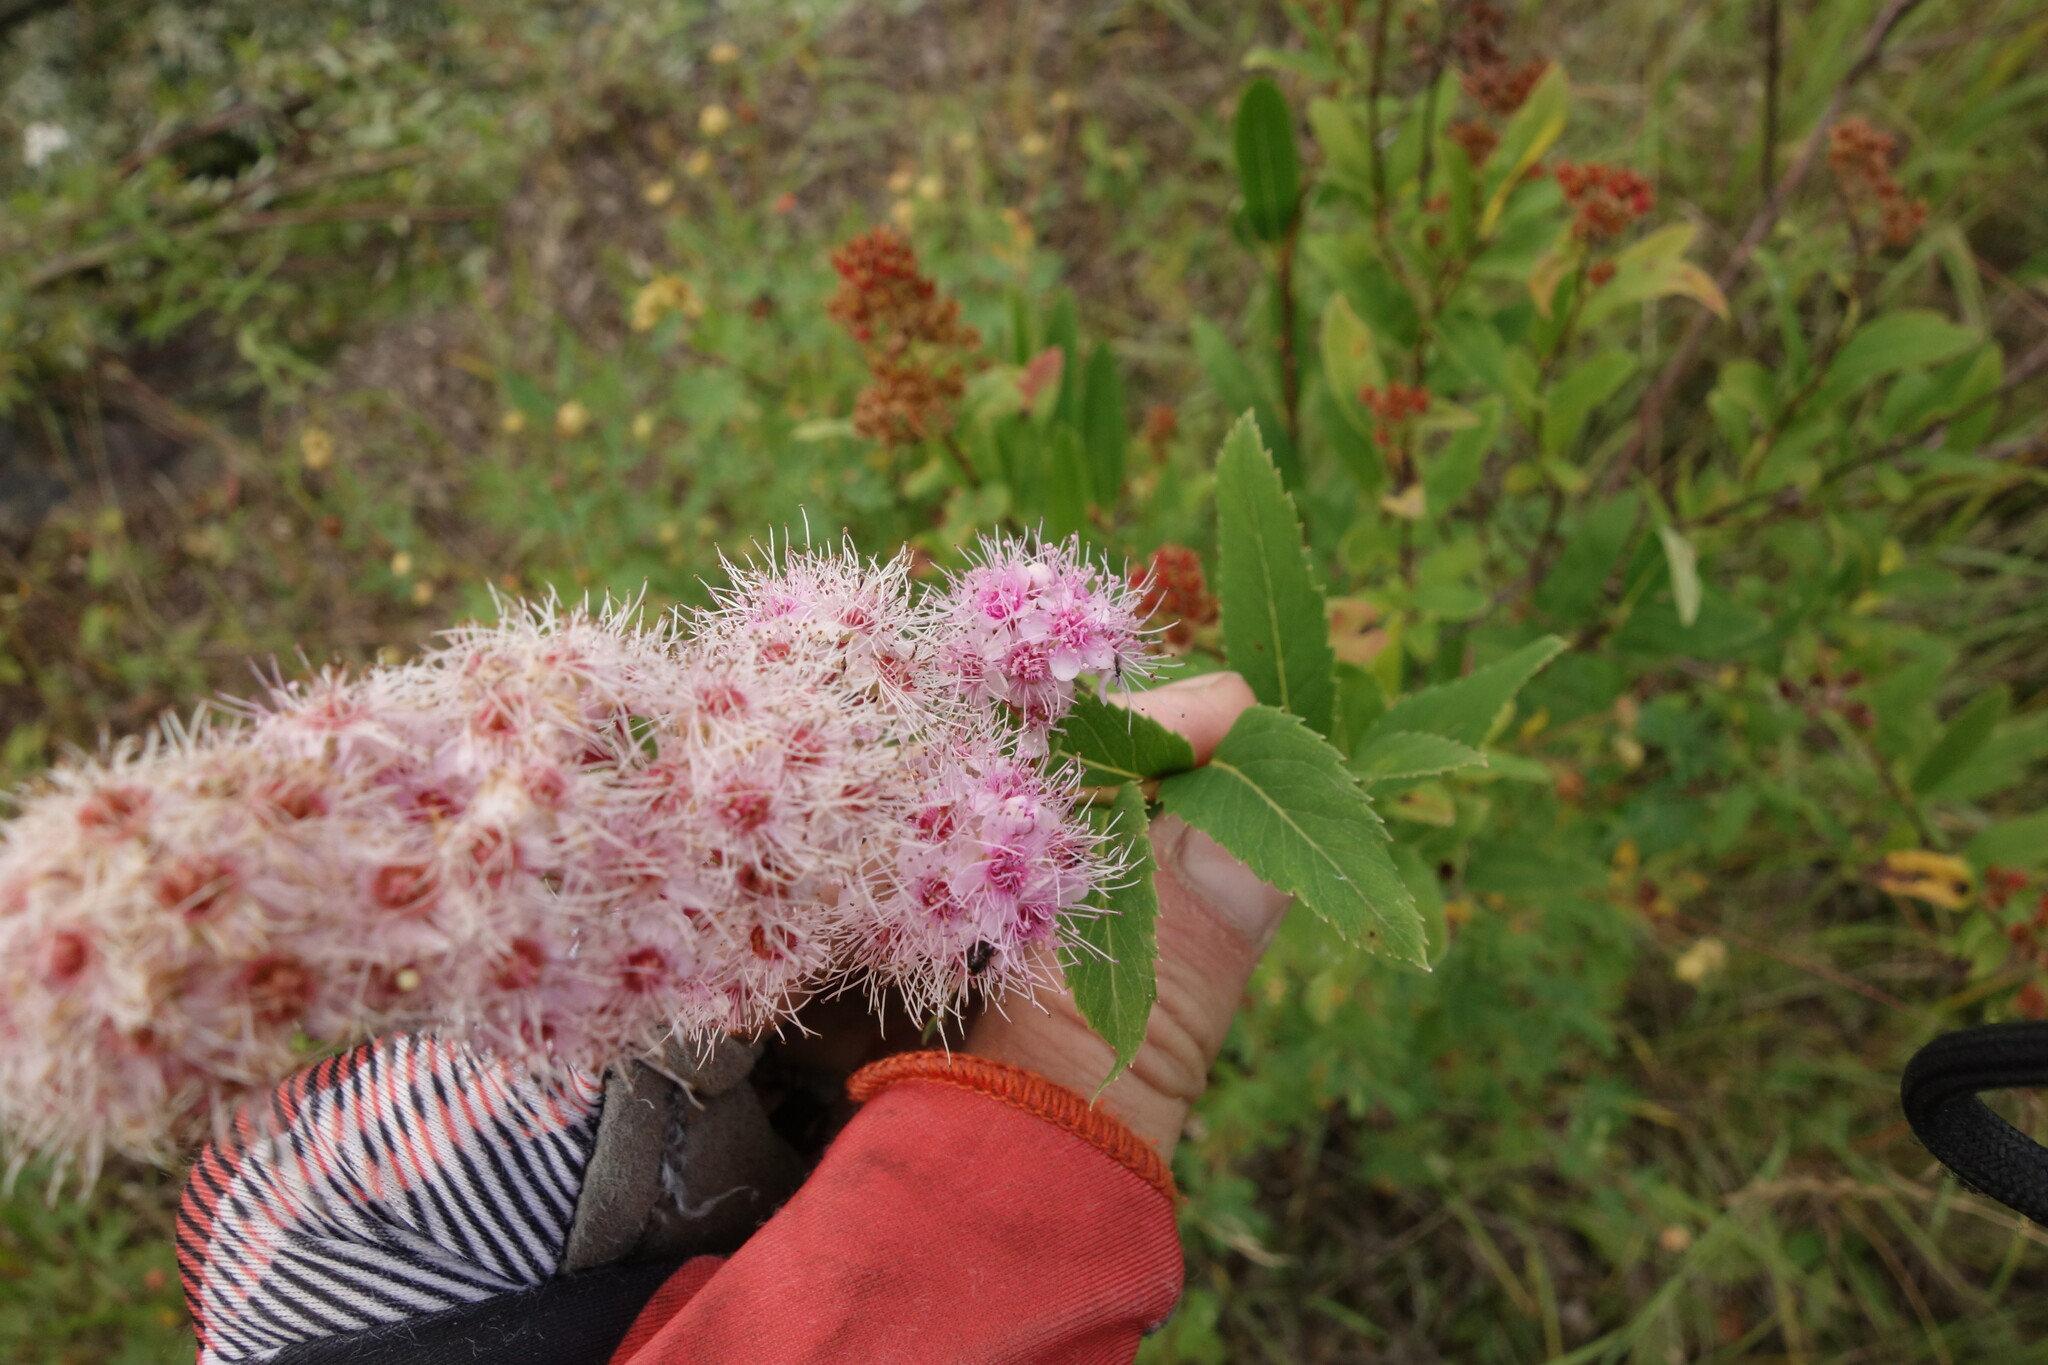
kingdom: Plantae
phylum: Tracheophyta
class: Magnoliopsida
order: Rosales
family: Rosaceae
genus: Spiraea
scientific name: Spiraea salicifolia
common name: Bridewort
